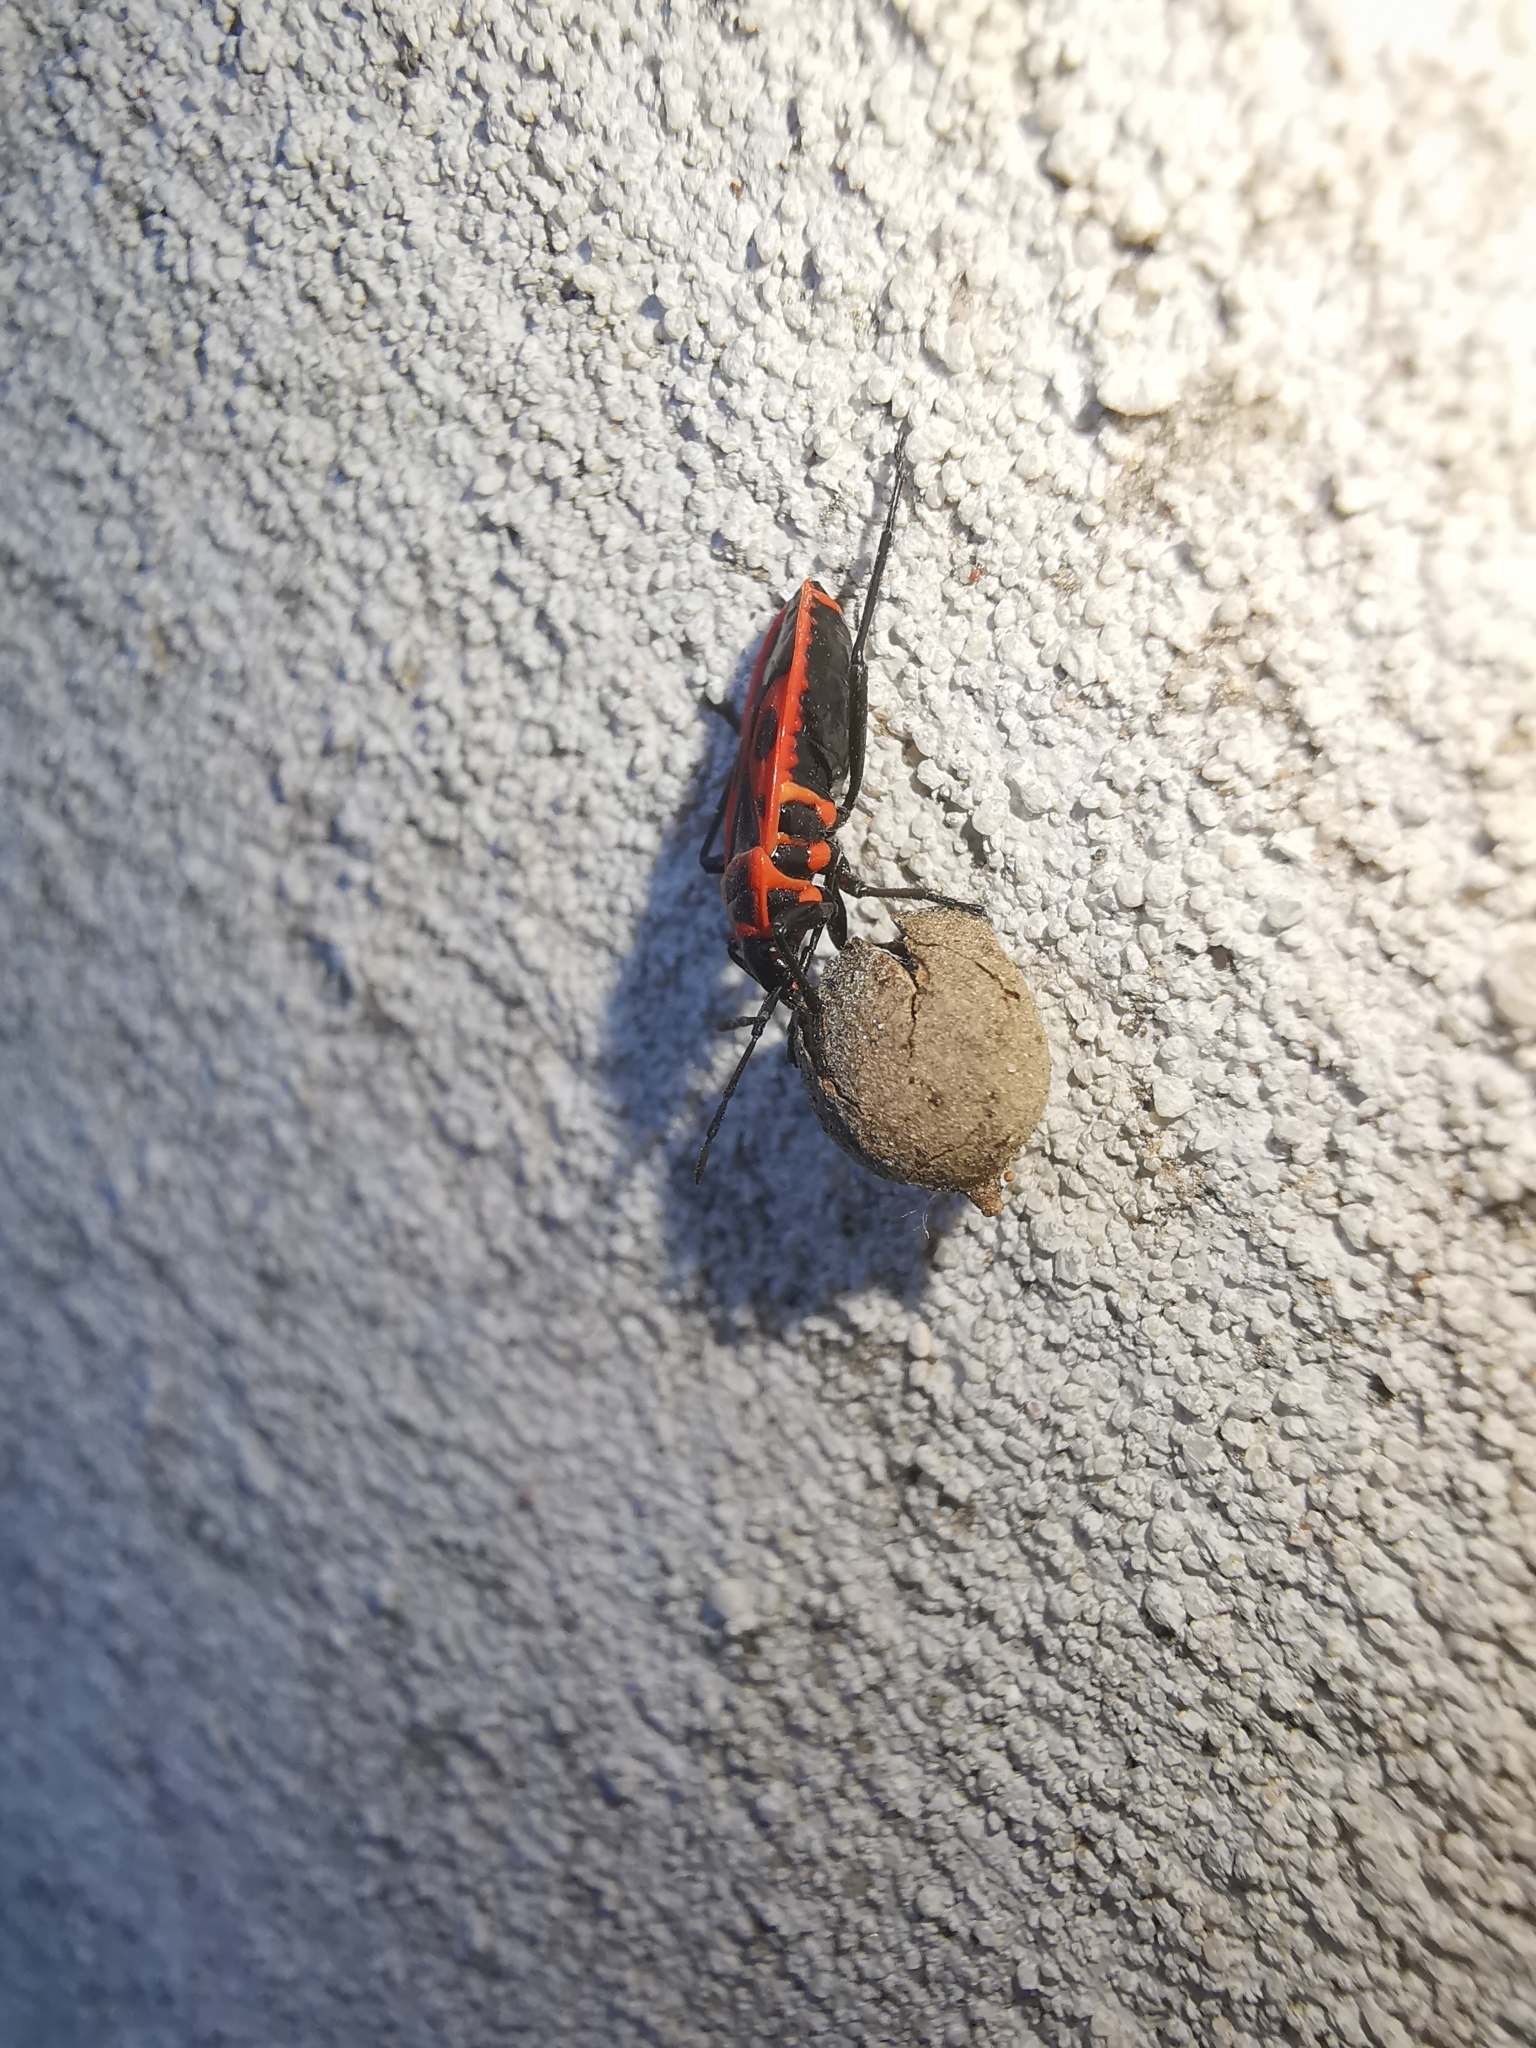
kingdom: Animalia
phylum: Arthropoda
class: Insecta
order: Hemiptera
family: Pyrrhocoridae
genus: Pyrrhocoris
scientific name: Pyrrhocoris apterus
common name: Firebug
